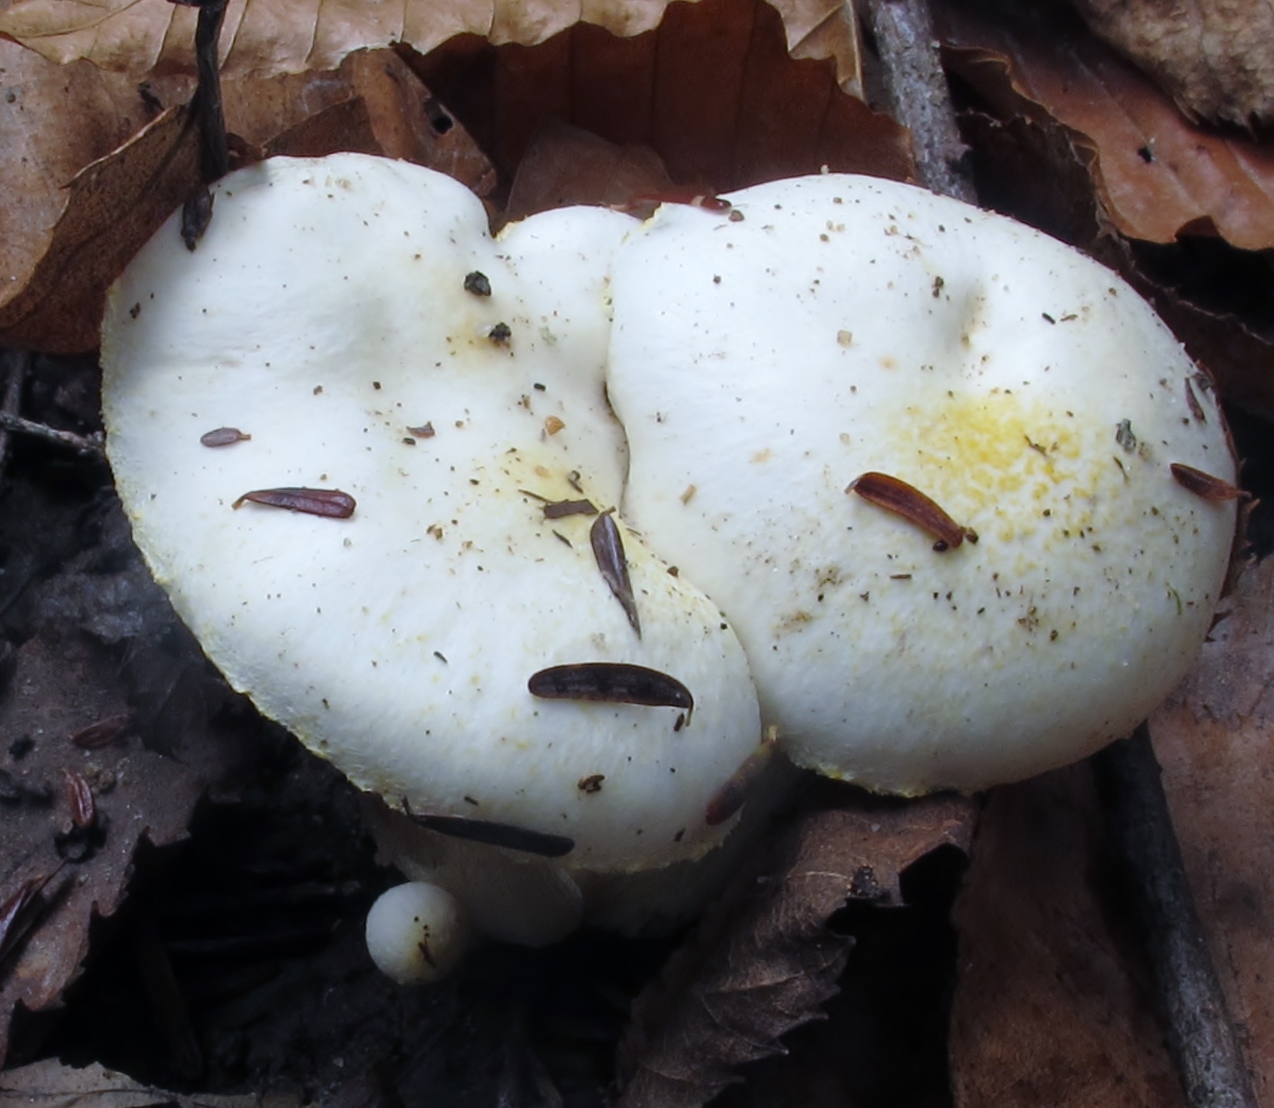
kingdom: Fungi
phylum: Basidiomycota
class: Agaricomycetes
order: Agaricales
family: Hygrophoraceae
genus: Hygrophorus
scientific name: Hygrophorus chrysodon
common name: Gold flecked woodwax
